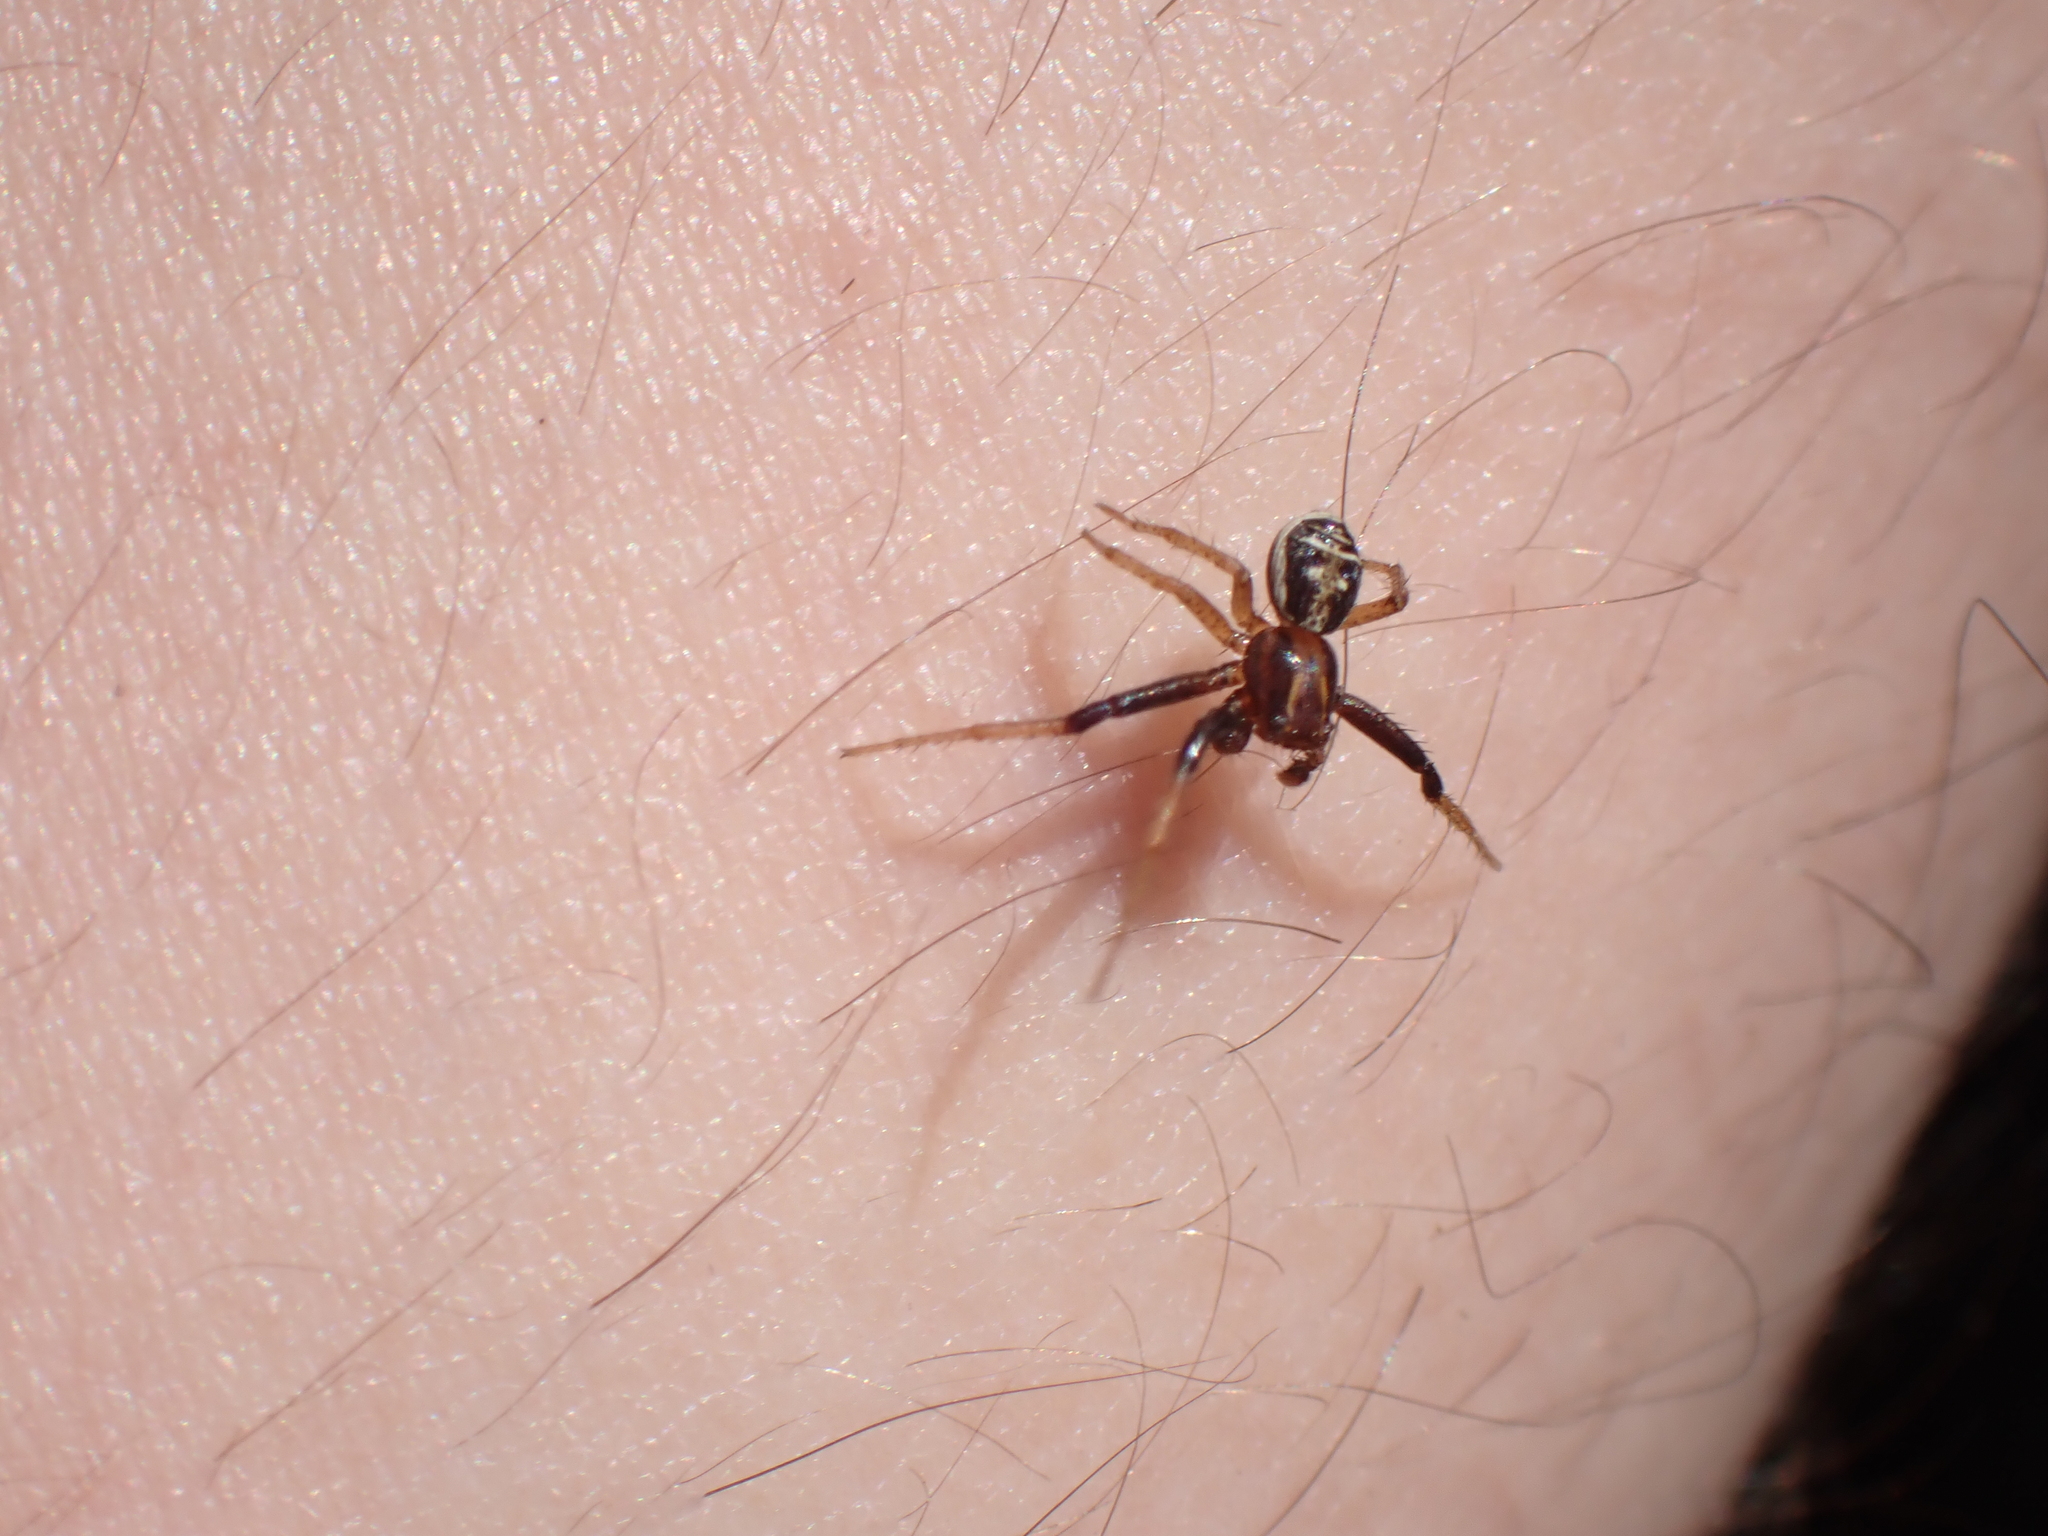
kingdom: Animalia
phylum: Arthropoda
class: Arachnida
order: Araneae
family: Thomisidae
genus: Xysticus
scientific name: Xysticus ulmi
